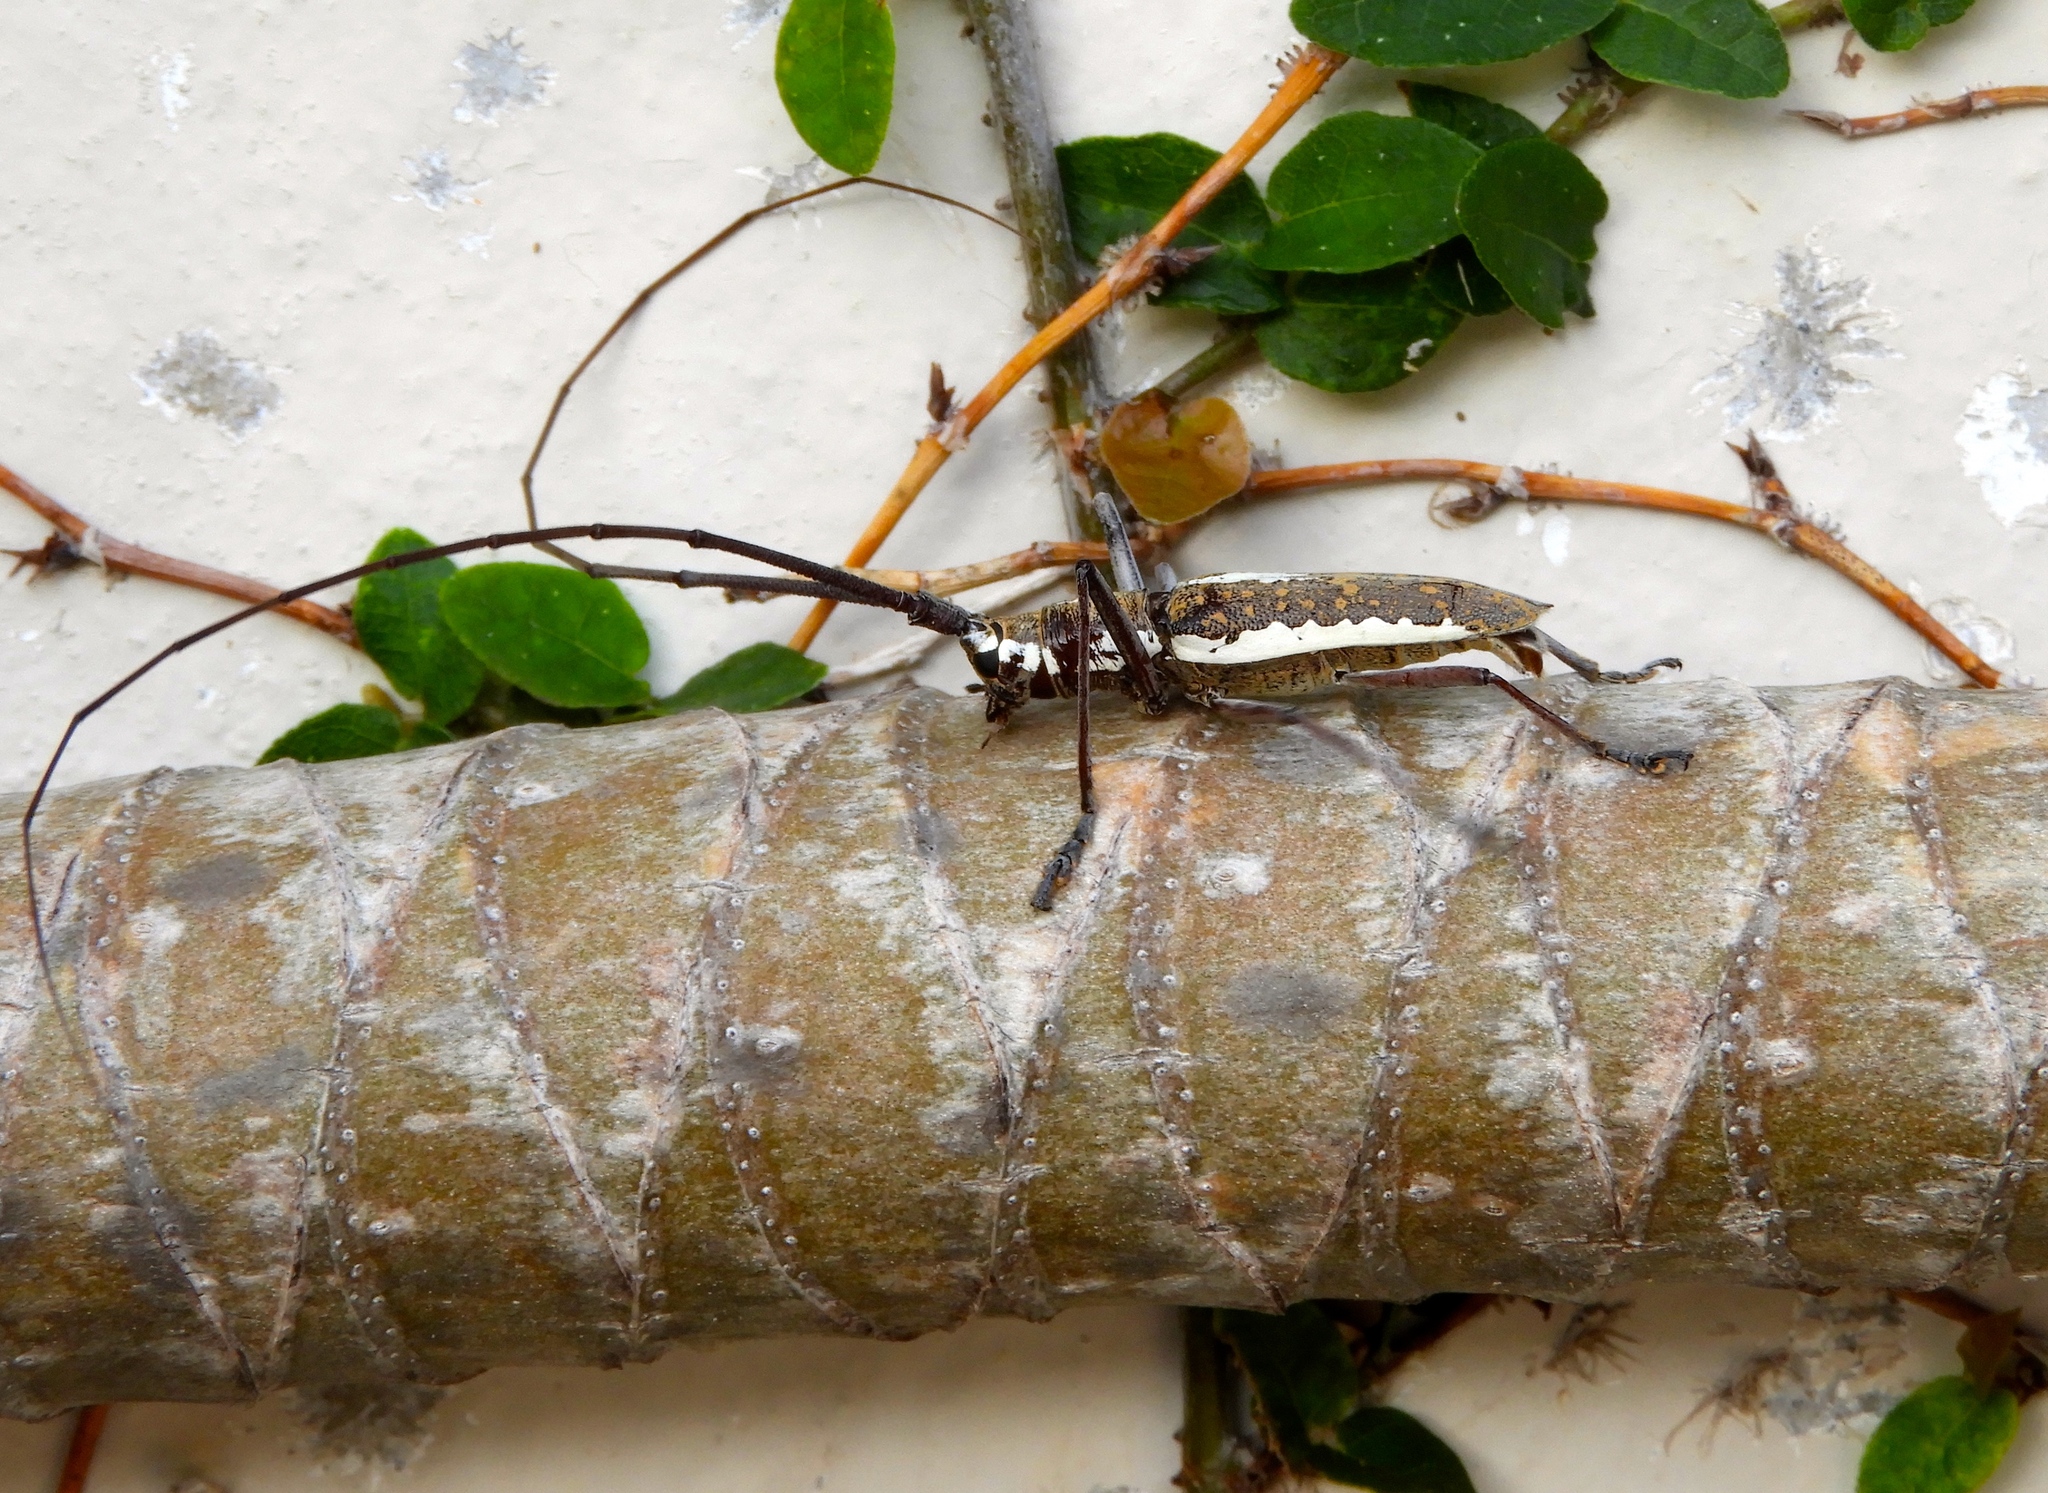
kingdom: Animalia
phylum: Arthropoda
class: Insecta
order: Coleoptera
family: Cerambycidae
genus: Neoptychodes
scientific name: Neoptychodes trilineatus
